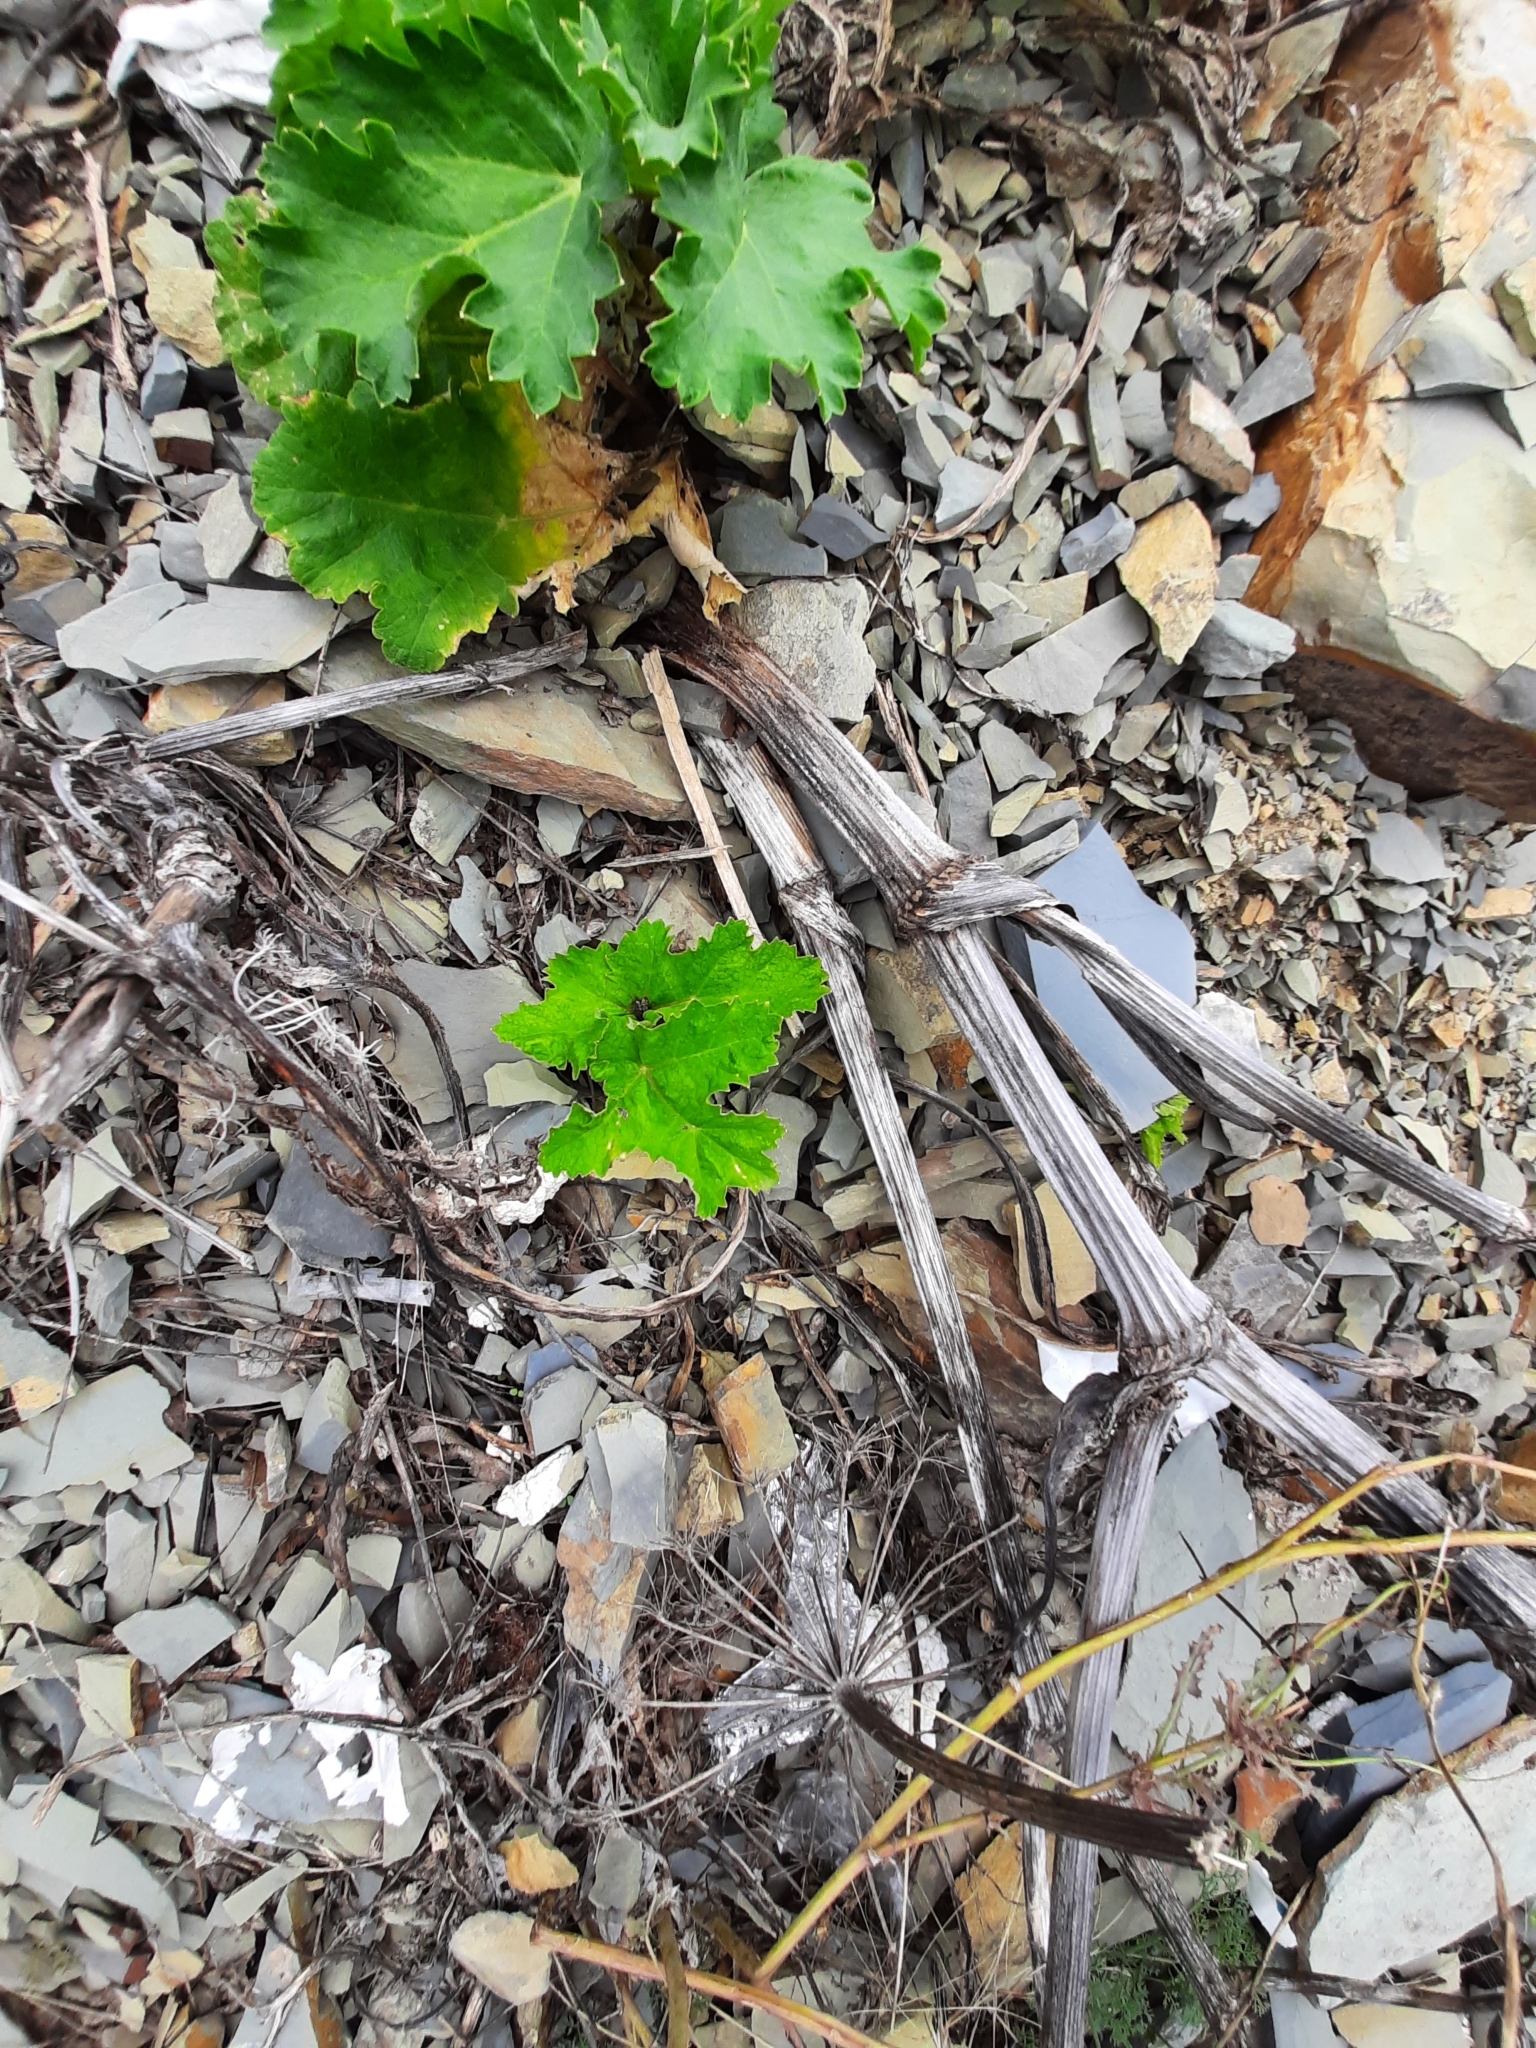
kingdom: Plantae
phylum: Tracheophyta
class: Magnoliopsida
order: Apiales
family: Apiaceae
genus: Heracleum
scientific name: Heracleum stevenii
